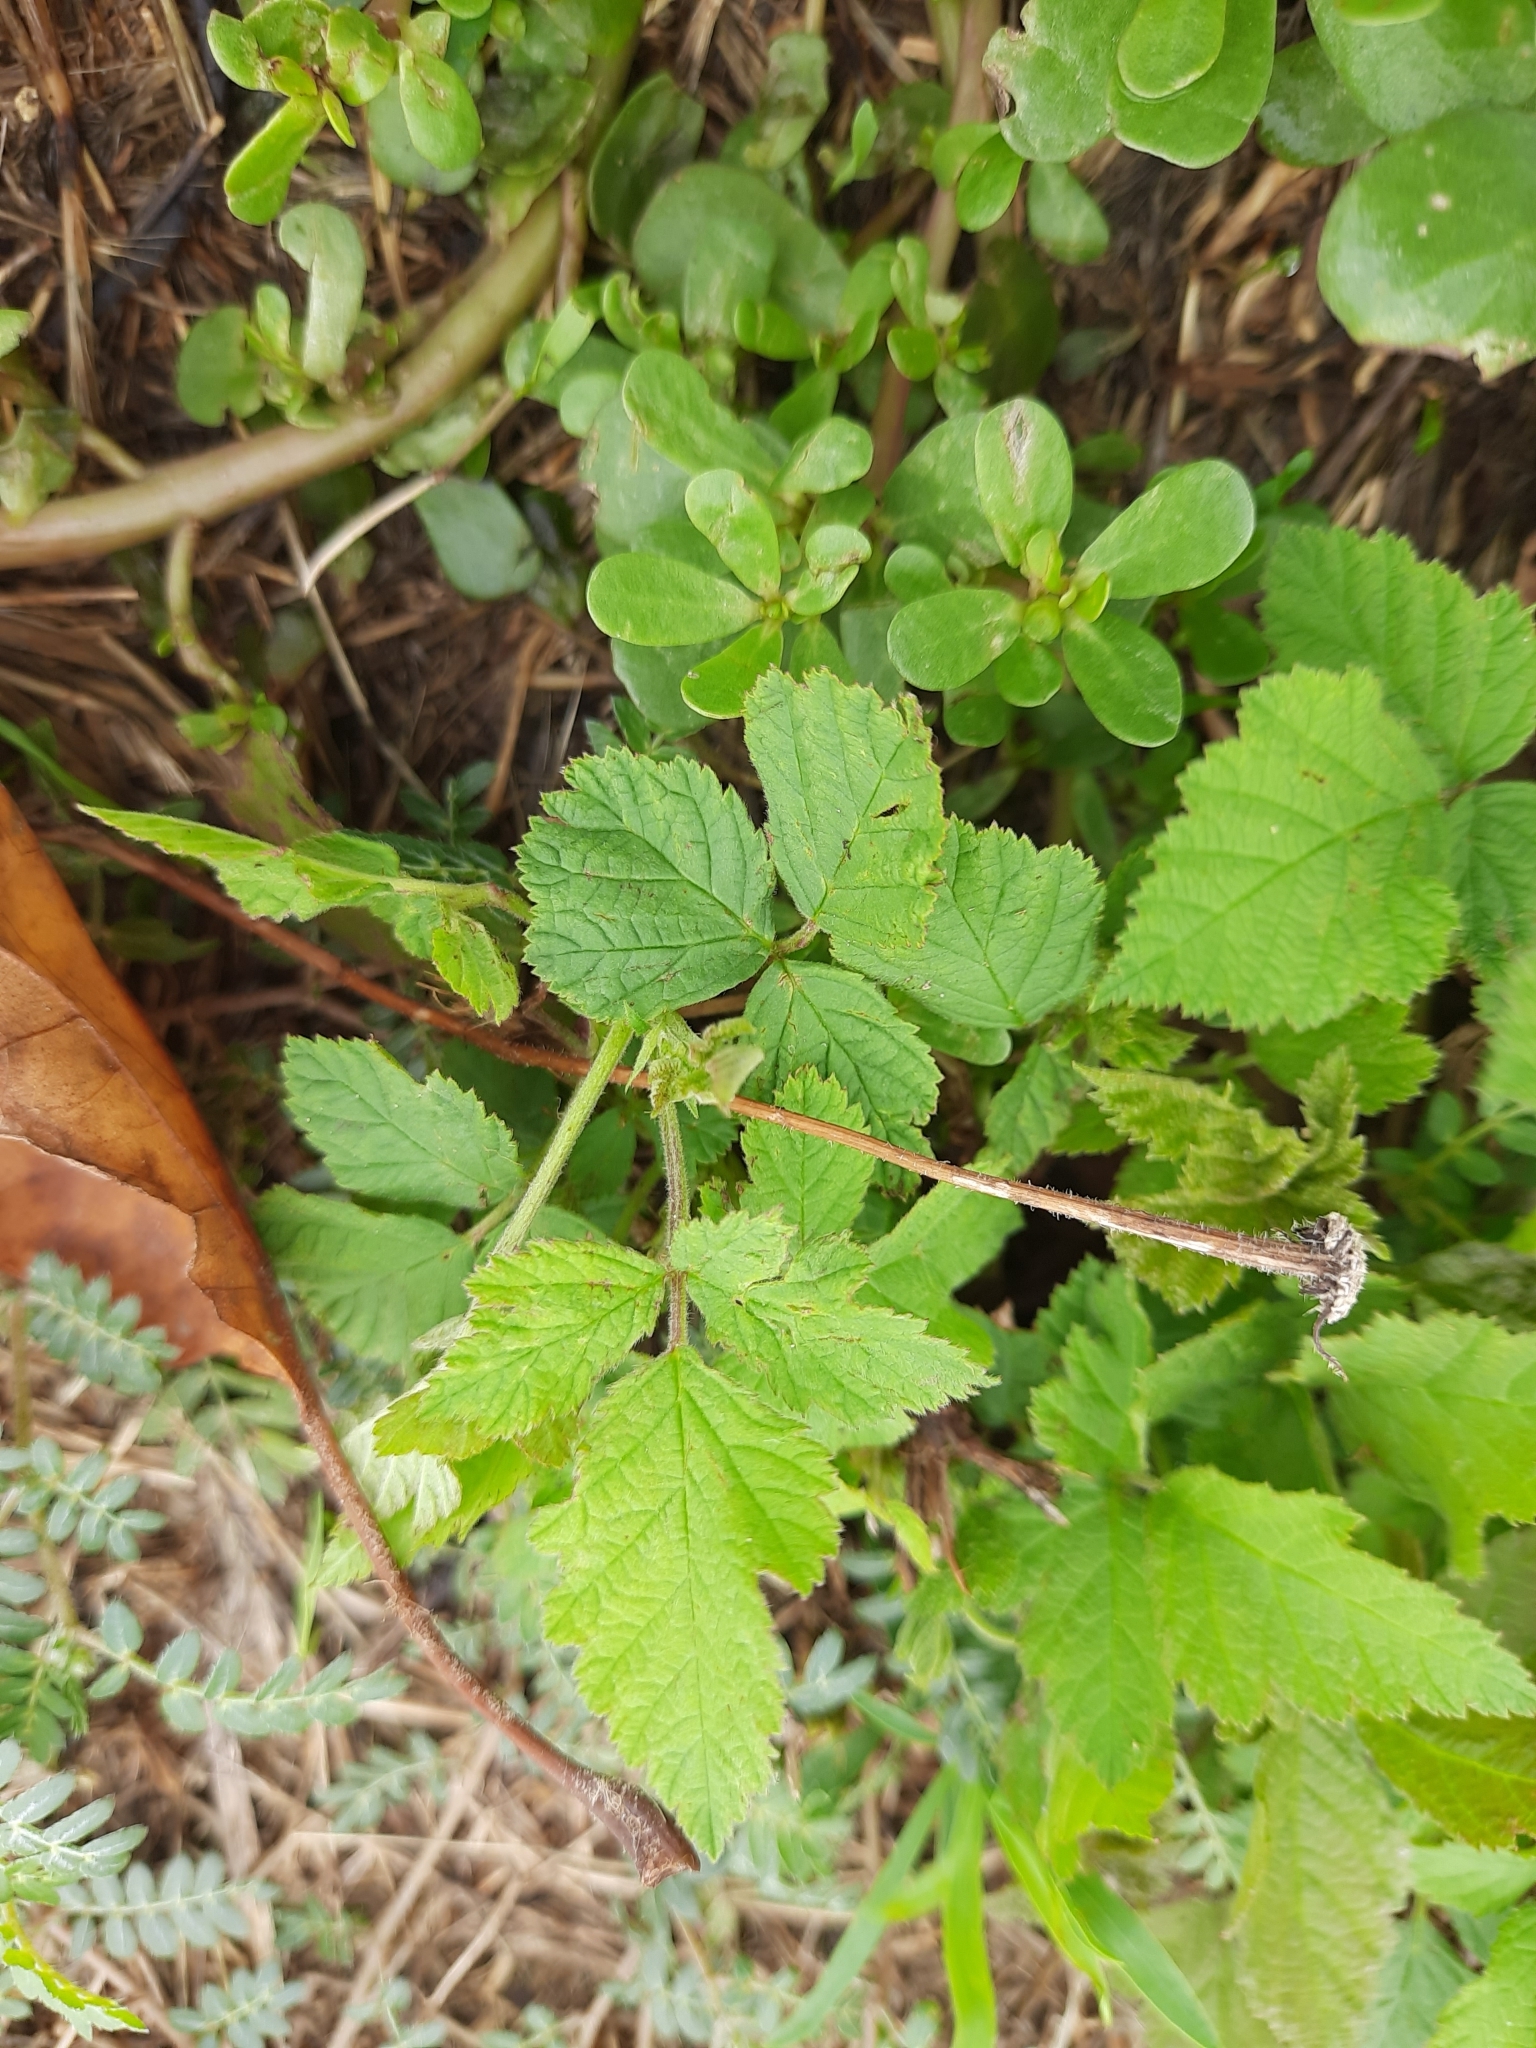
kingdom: Plantae
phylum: Tracheophyta
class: Magnoliopsida
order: Rosales
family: Rosaceae
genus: Rubus
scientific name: Rubus caesius
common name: Dewberry
